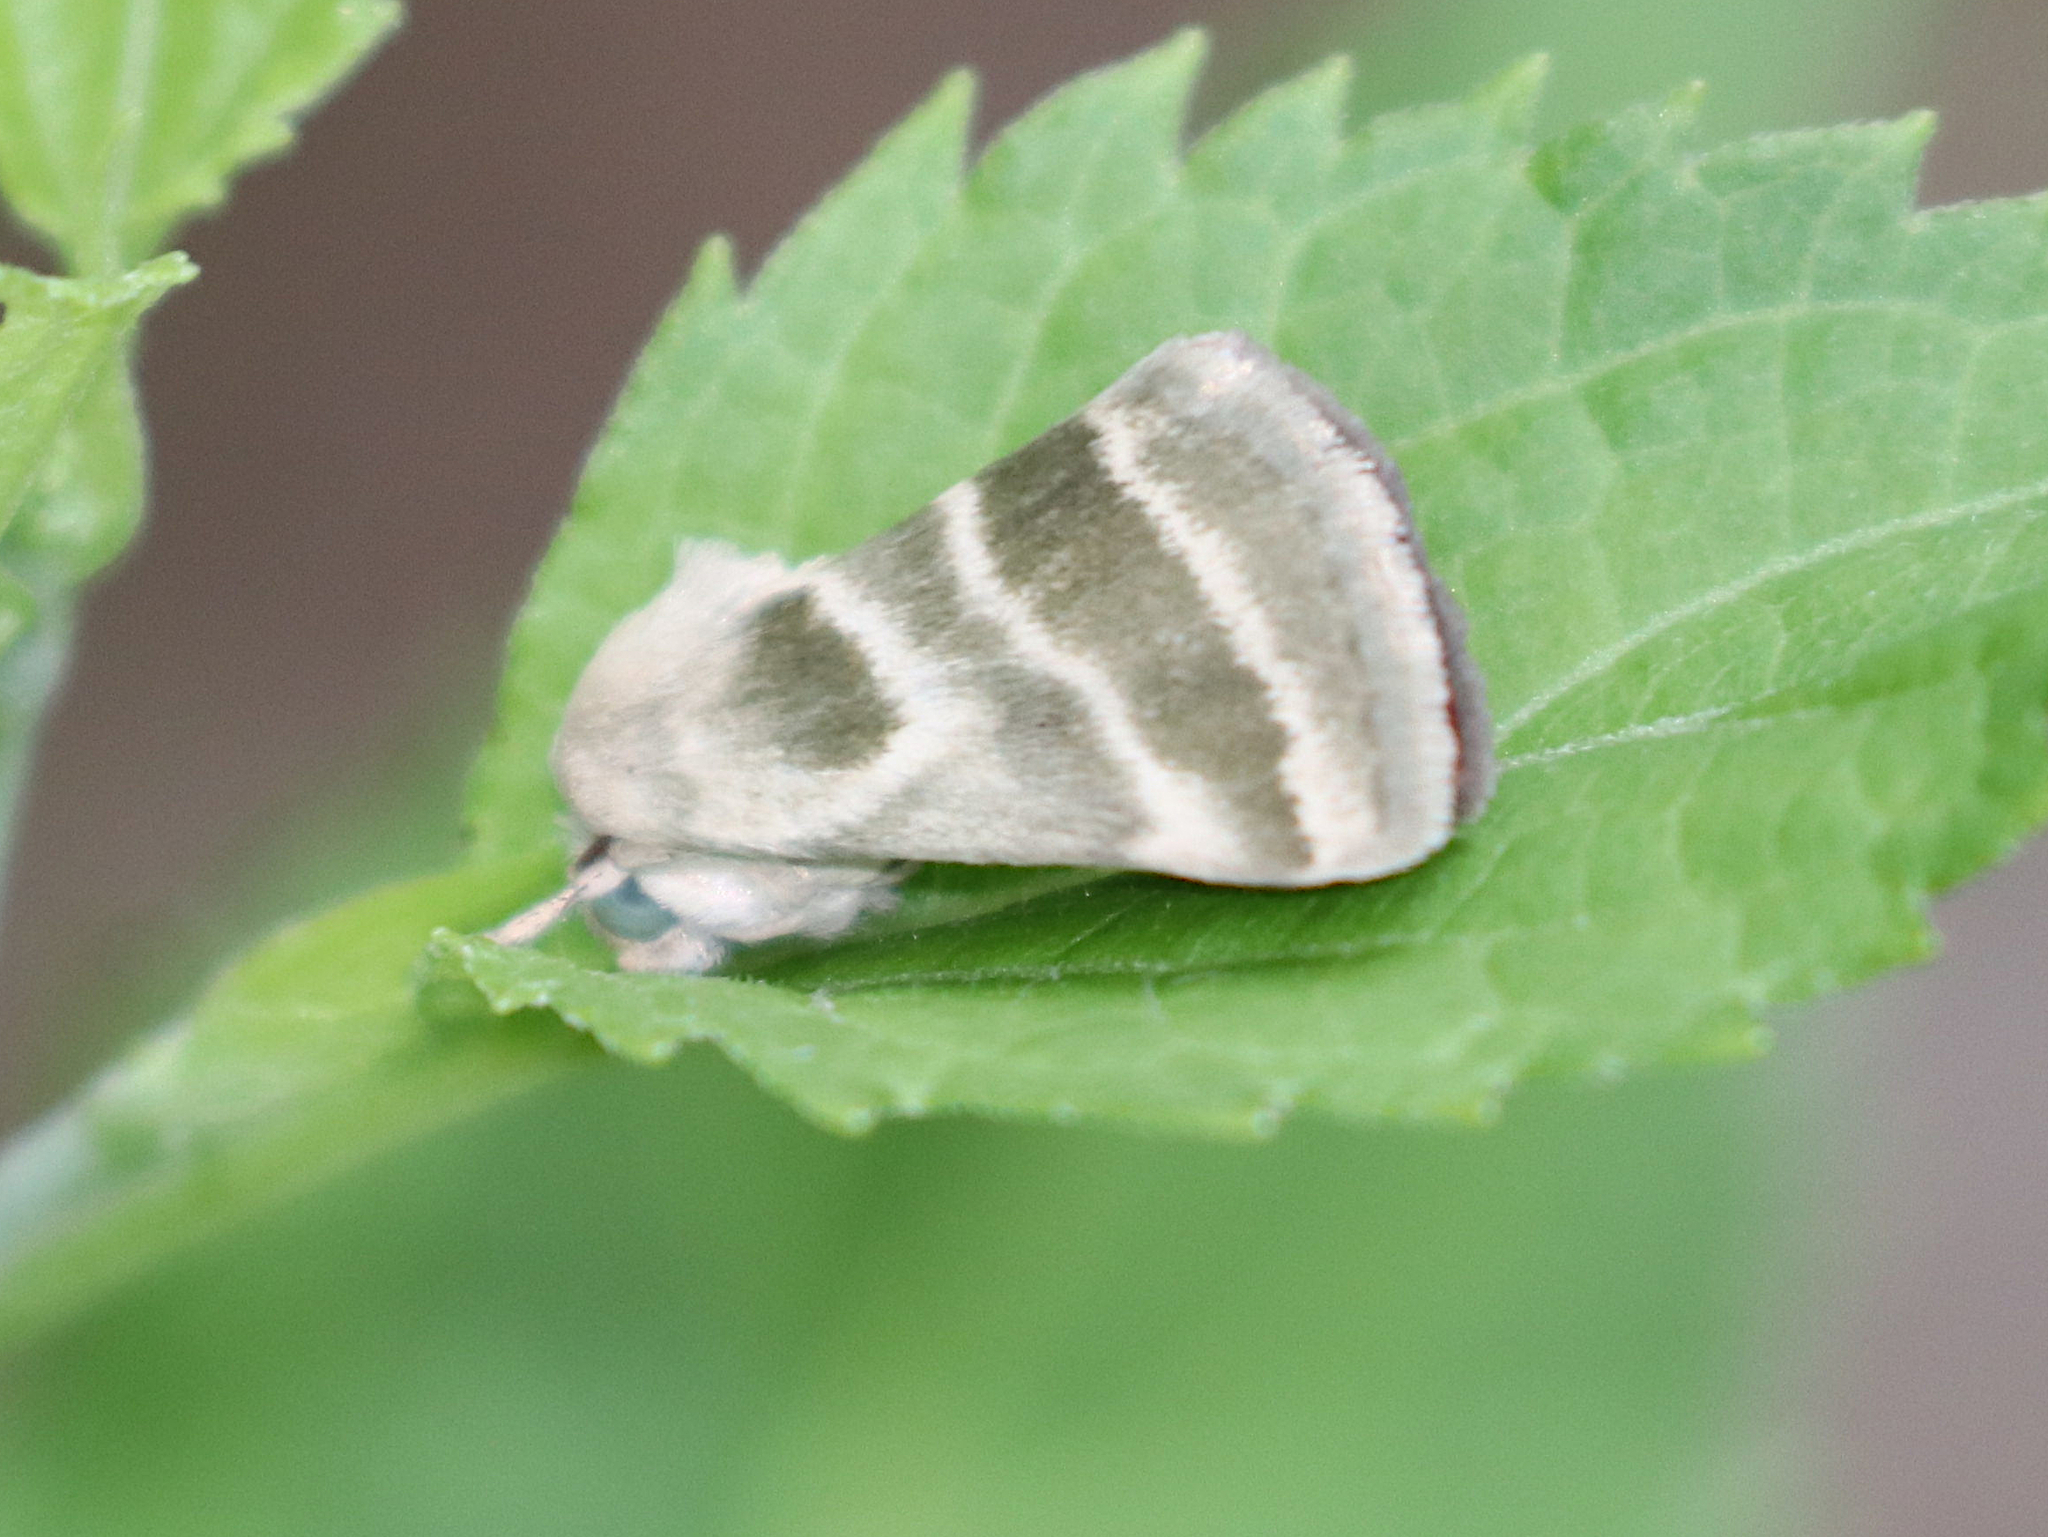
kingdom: Animalia
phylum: Arthropoda
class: Insecta
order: Lepidoptera
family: Noctuidae
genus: Schinia
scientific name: Schinia trifascia
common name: Three-lined flower moth
